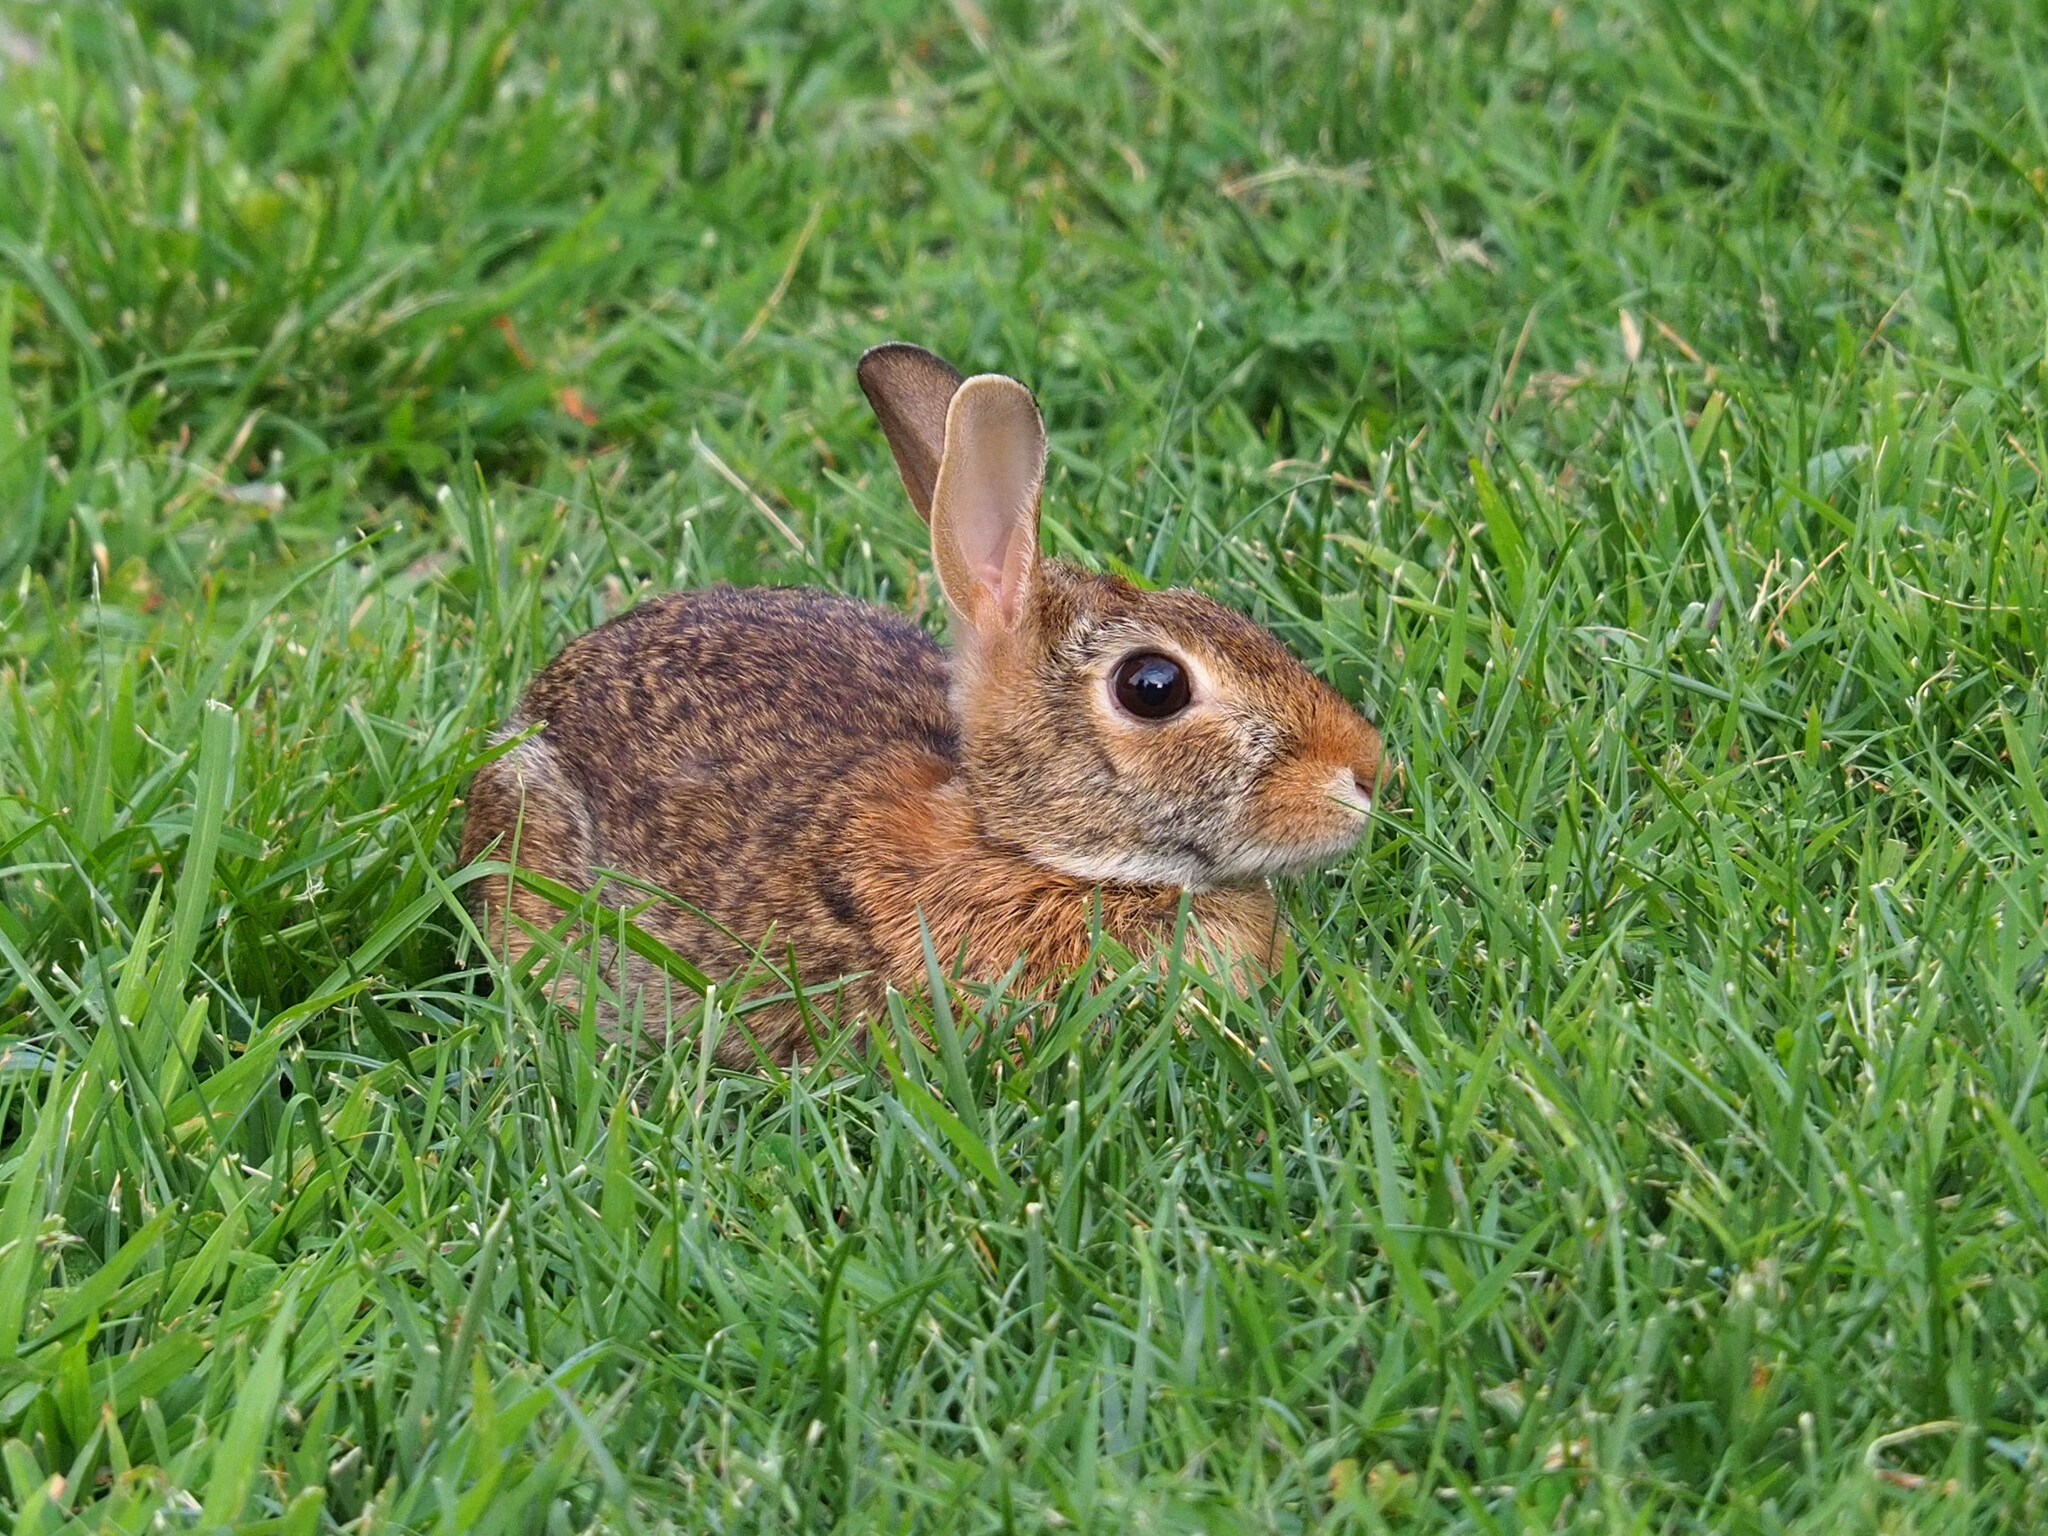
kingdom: Animalia
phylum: Chordata
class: Mammalia
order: Lagomorpha
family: Leporidae
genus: Sylvilagus
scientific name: Sylvilagus floridanus
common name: Eastern cottontail
